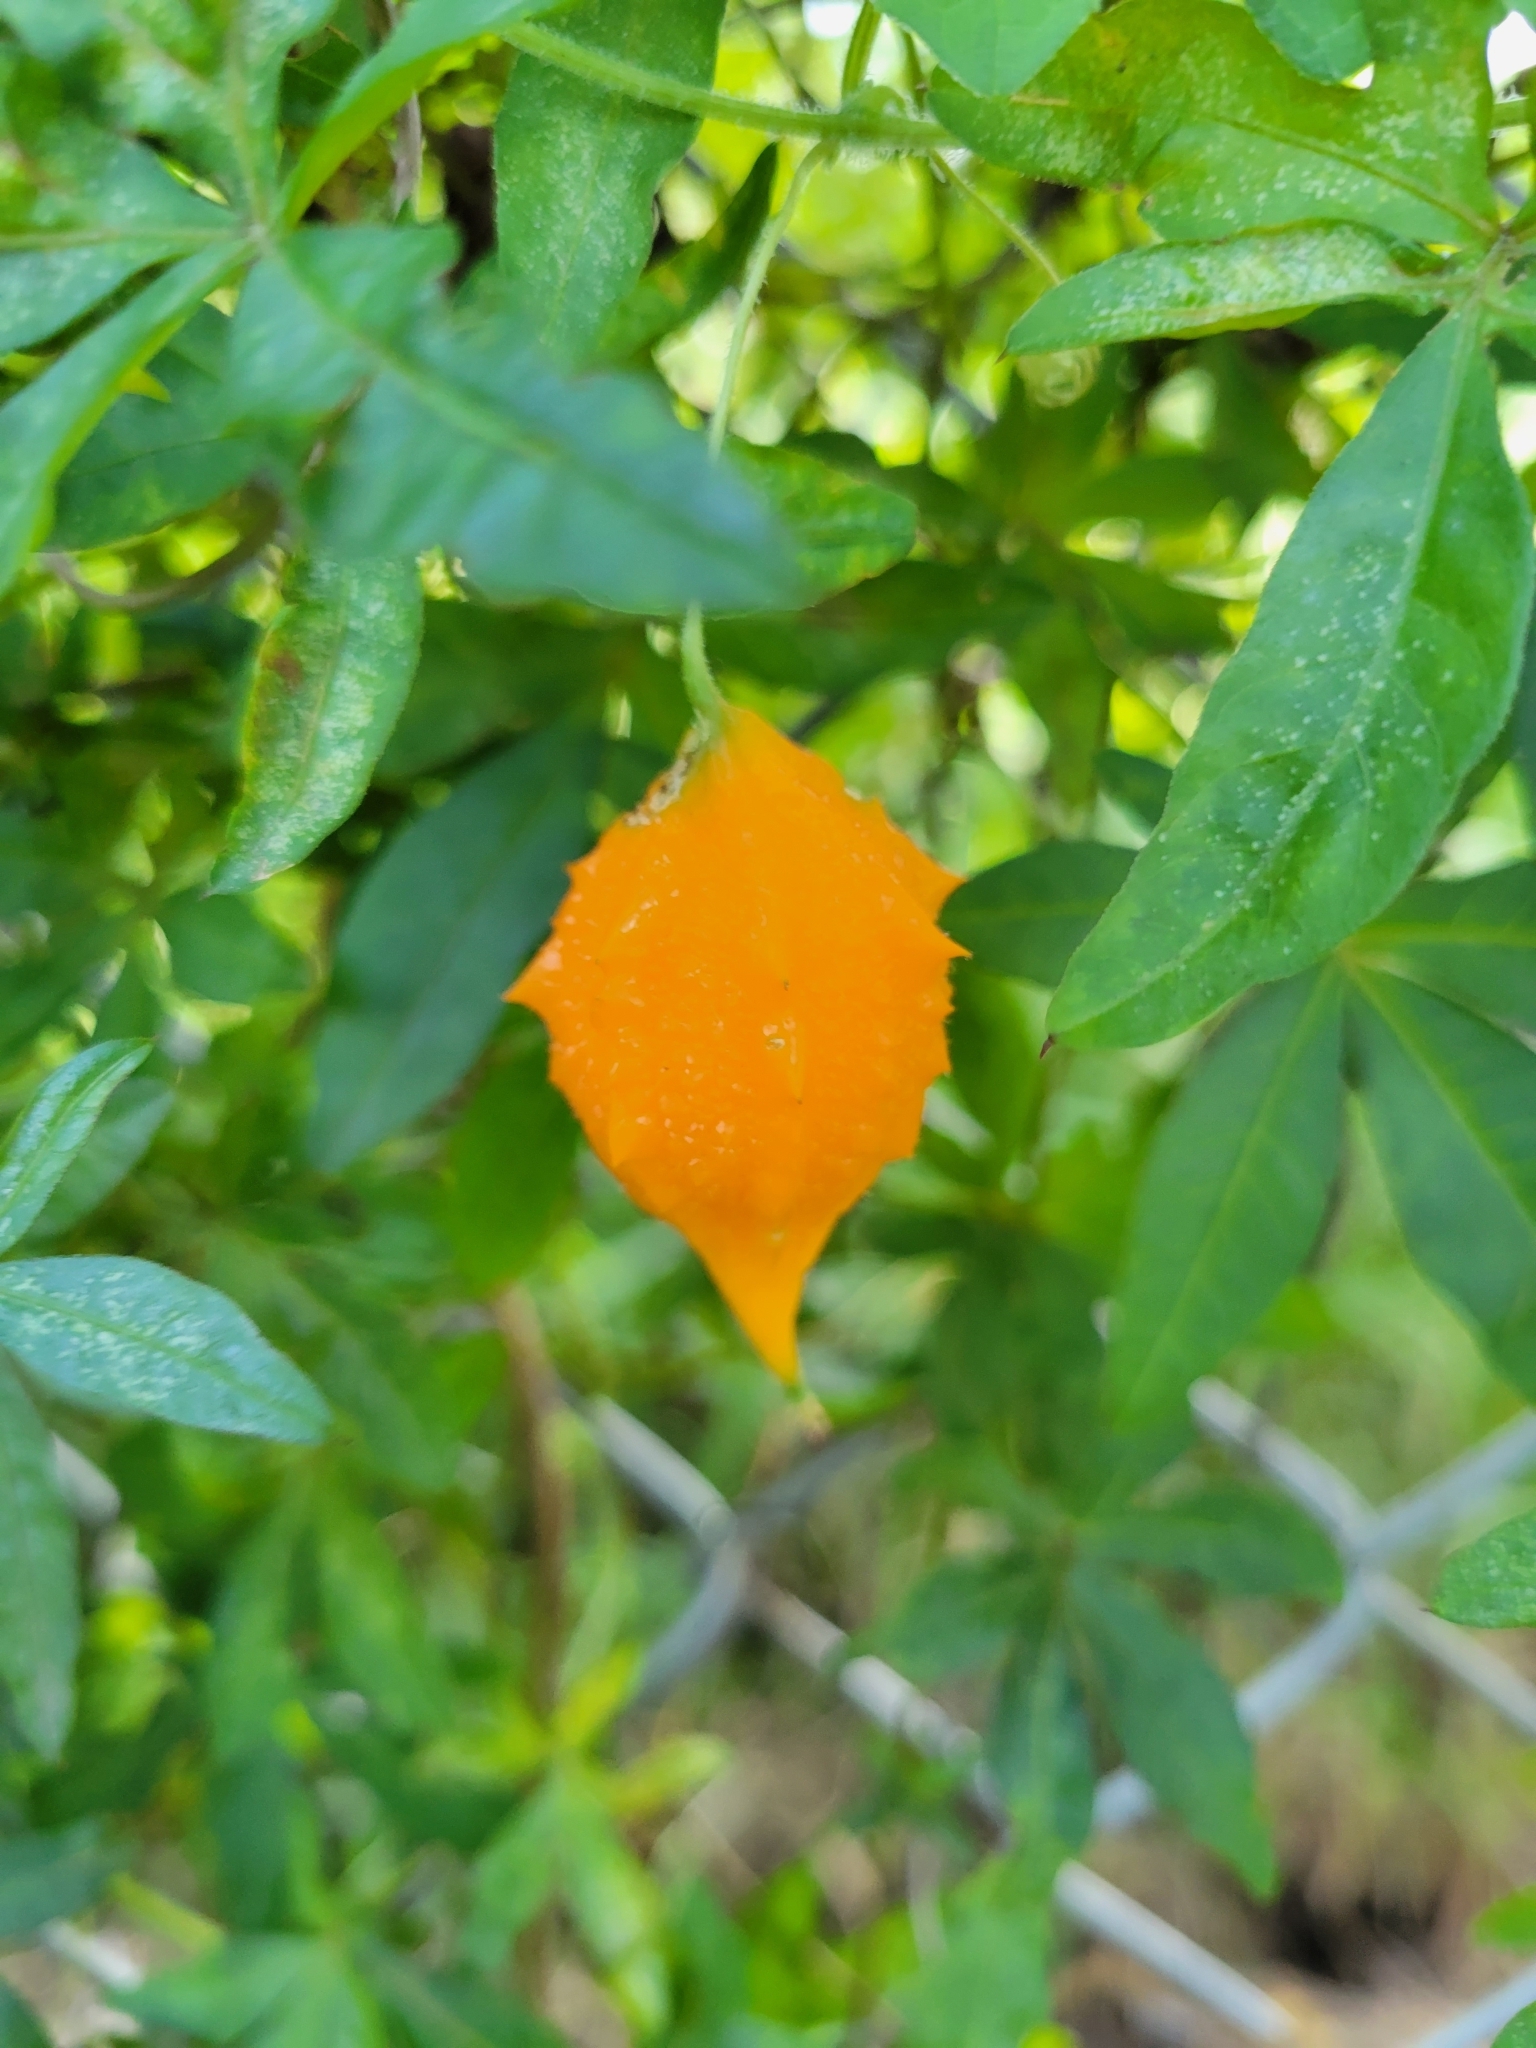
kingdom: Plantae
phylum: Tracheophyta
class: Magnoliopsida
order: Cucurbitales
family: Cucurbitaceae
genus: Momordica
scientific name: Momordica charantia
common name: Balsampear
